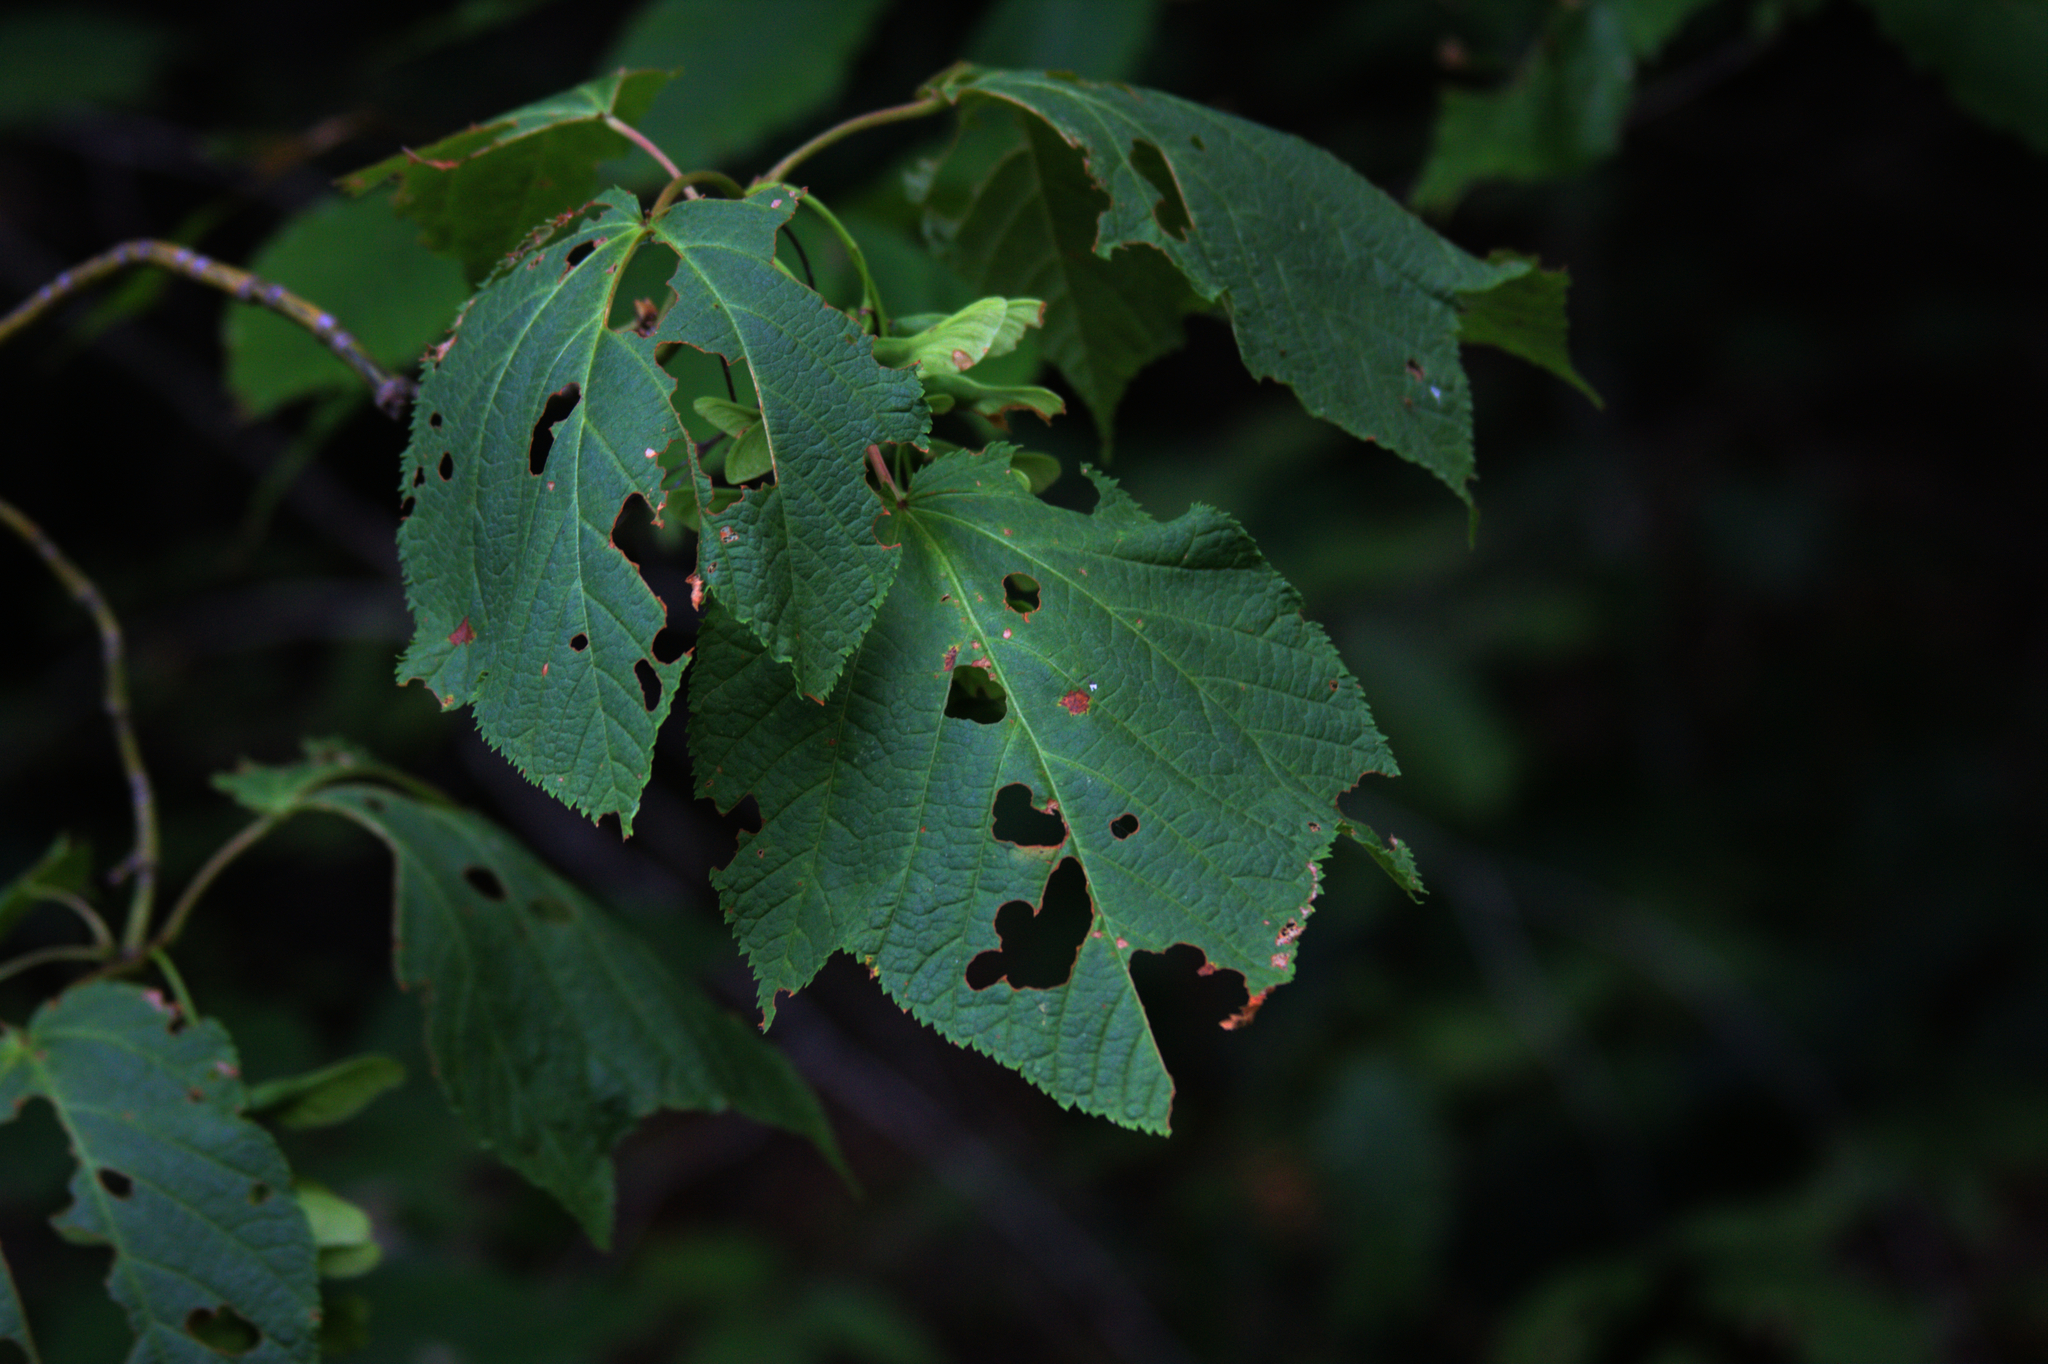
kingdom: Plantae
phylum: Tracheophyta
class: Magnoliopsida
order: Sapindales
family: Sapindaceae
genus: Acer
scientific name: Acer pensylvanicum
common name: Moosewood
